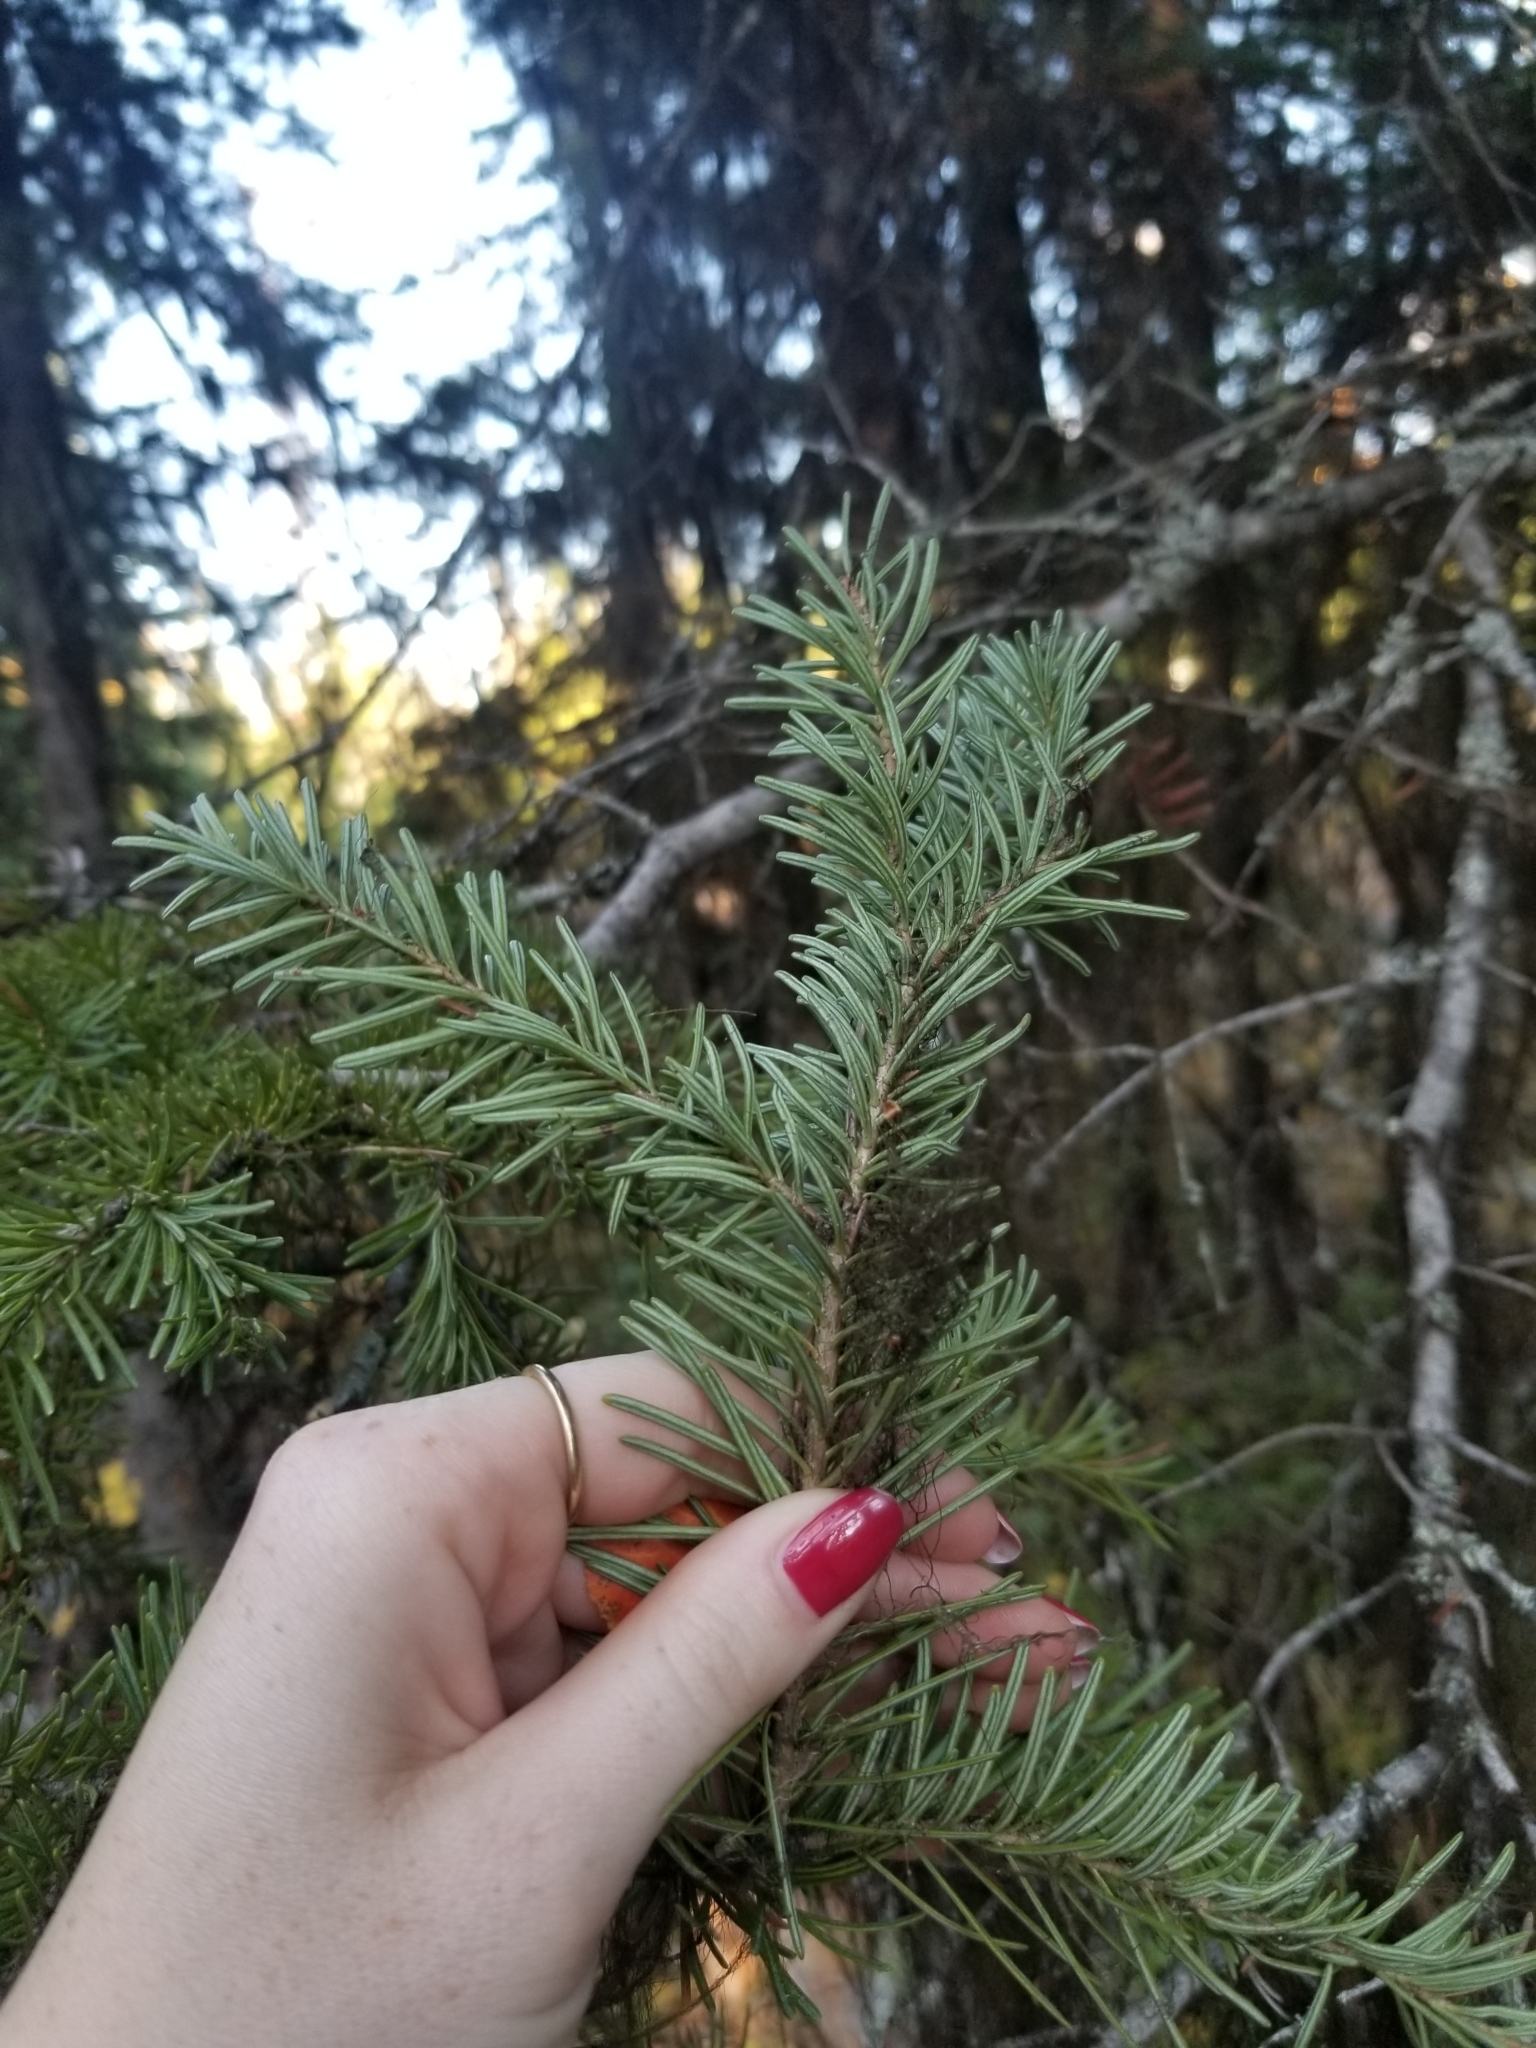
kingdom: Plantae
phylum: Tracheophyta
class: Pinopsida
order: Pinales
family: Pinaceae
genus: Abies
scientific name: Abies lasiocarpa
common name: Subalpine fir
